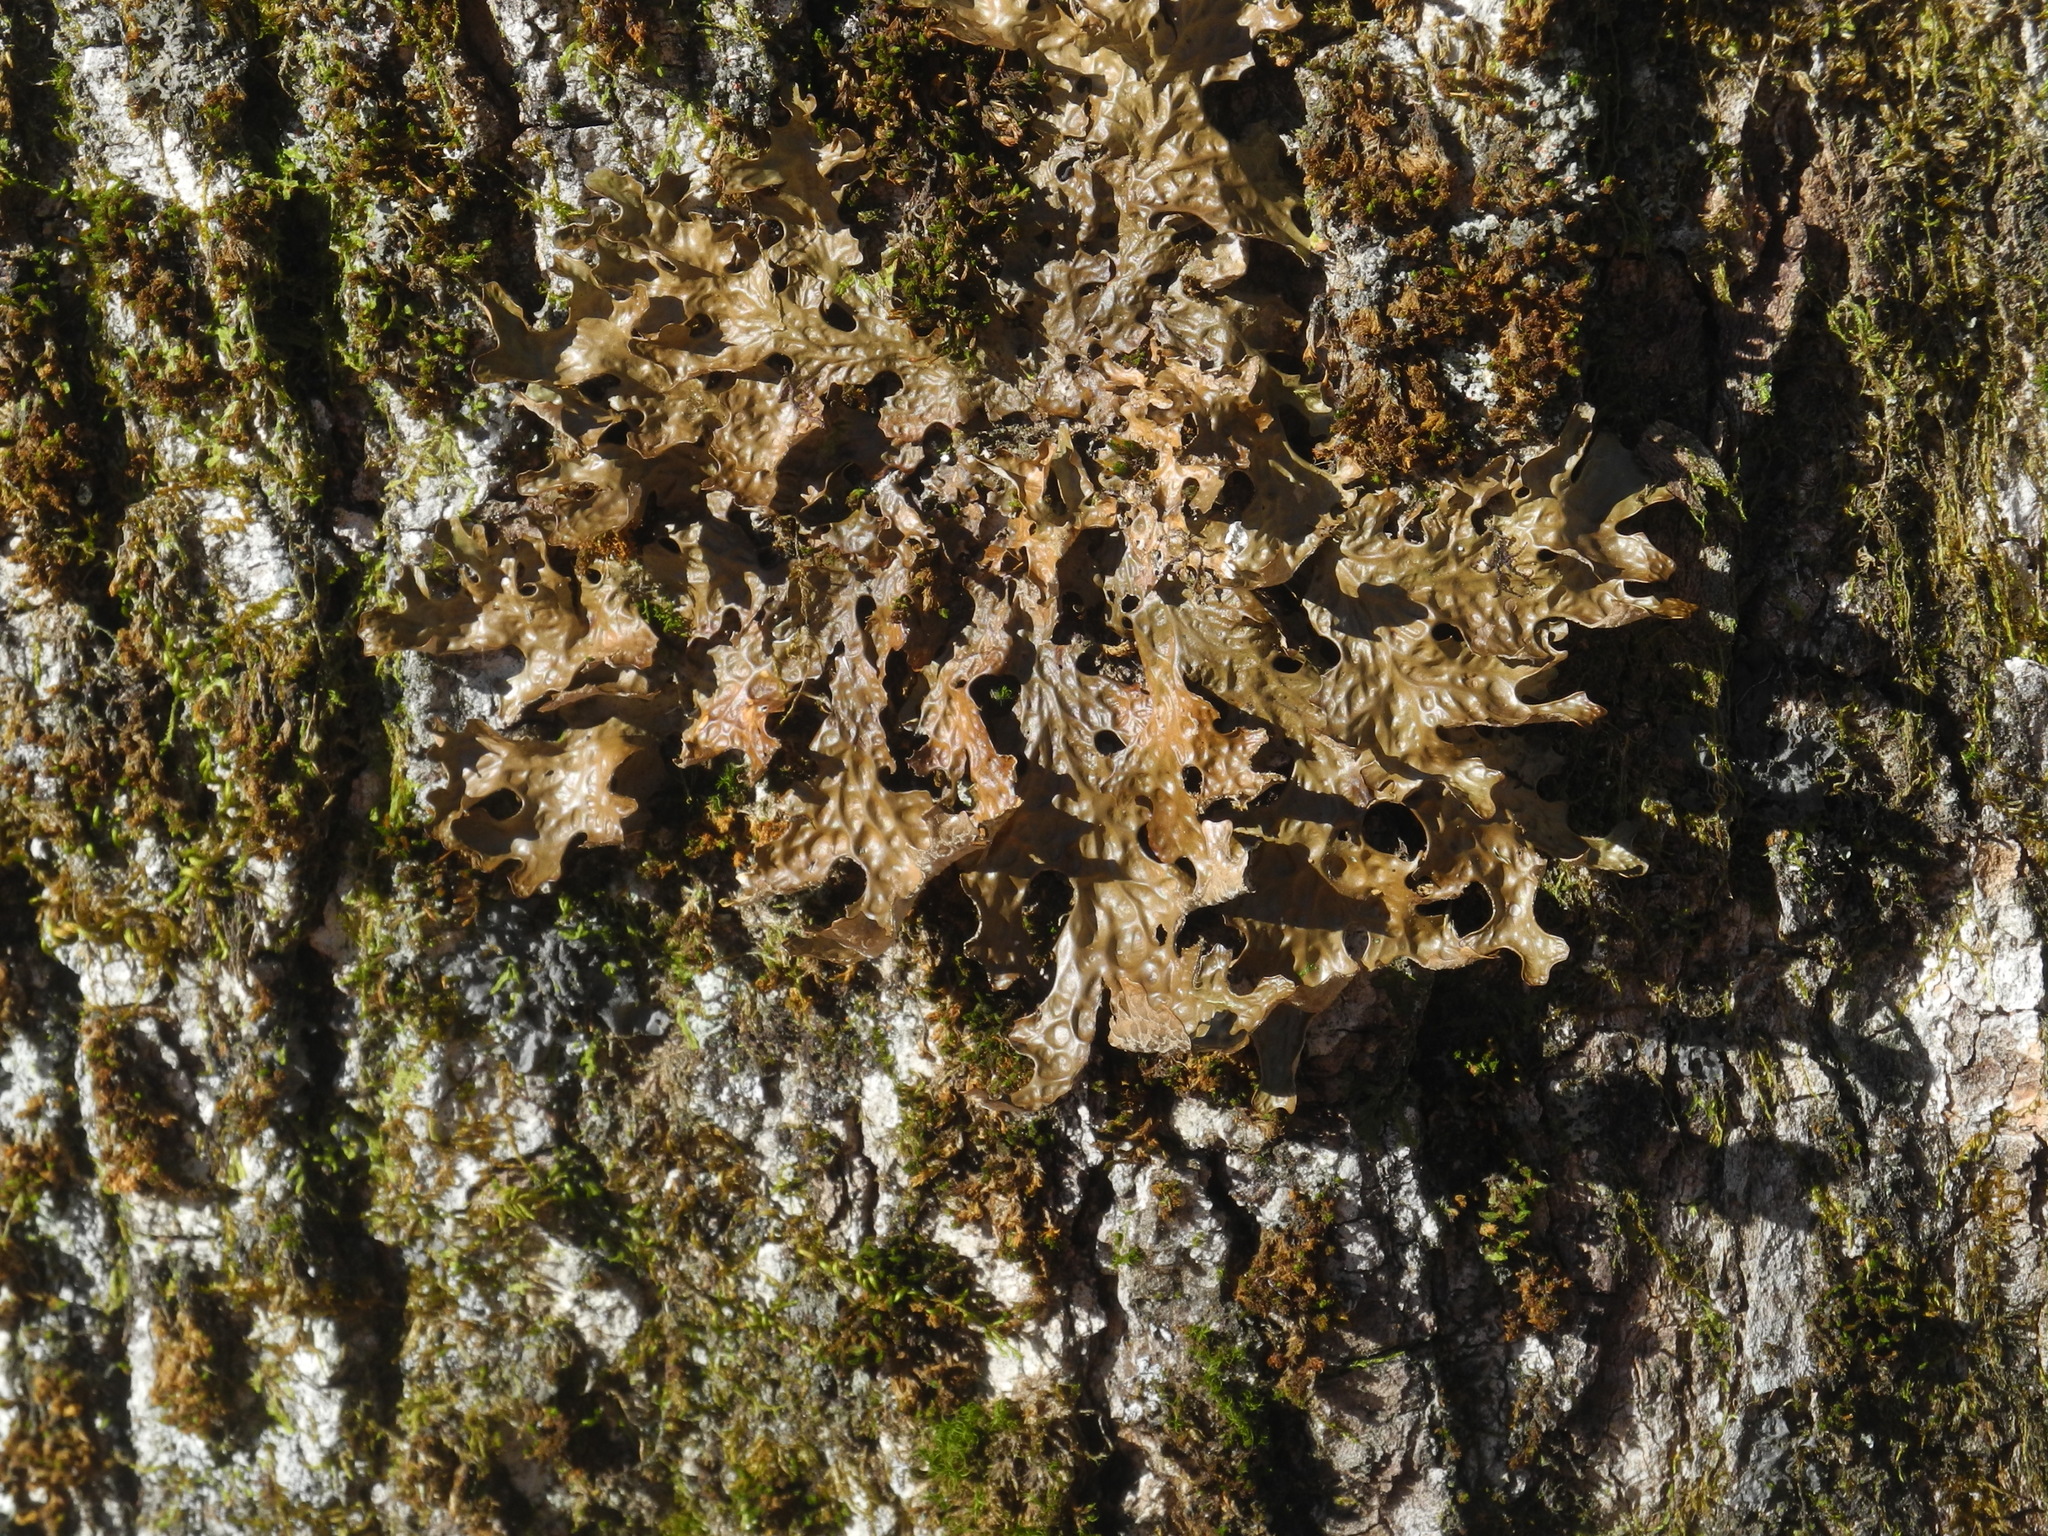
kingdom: Fungi
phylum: Ascomycota
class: Lecanoromycetes
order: Peltigerales
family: Lobariaceae
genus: Lobaria
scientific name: Lobaria pulmonaria
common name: Lungwort
